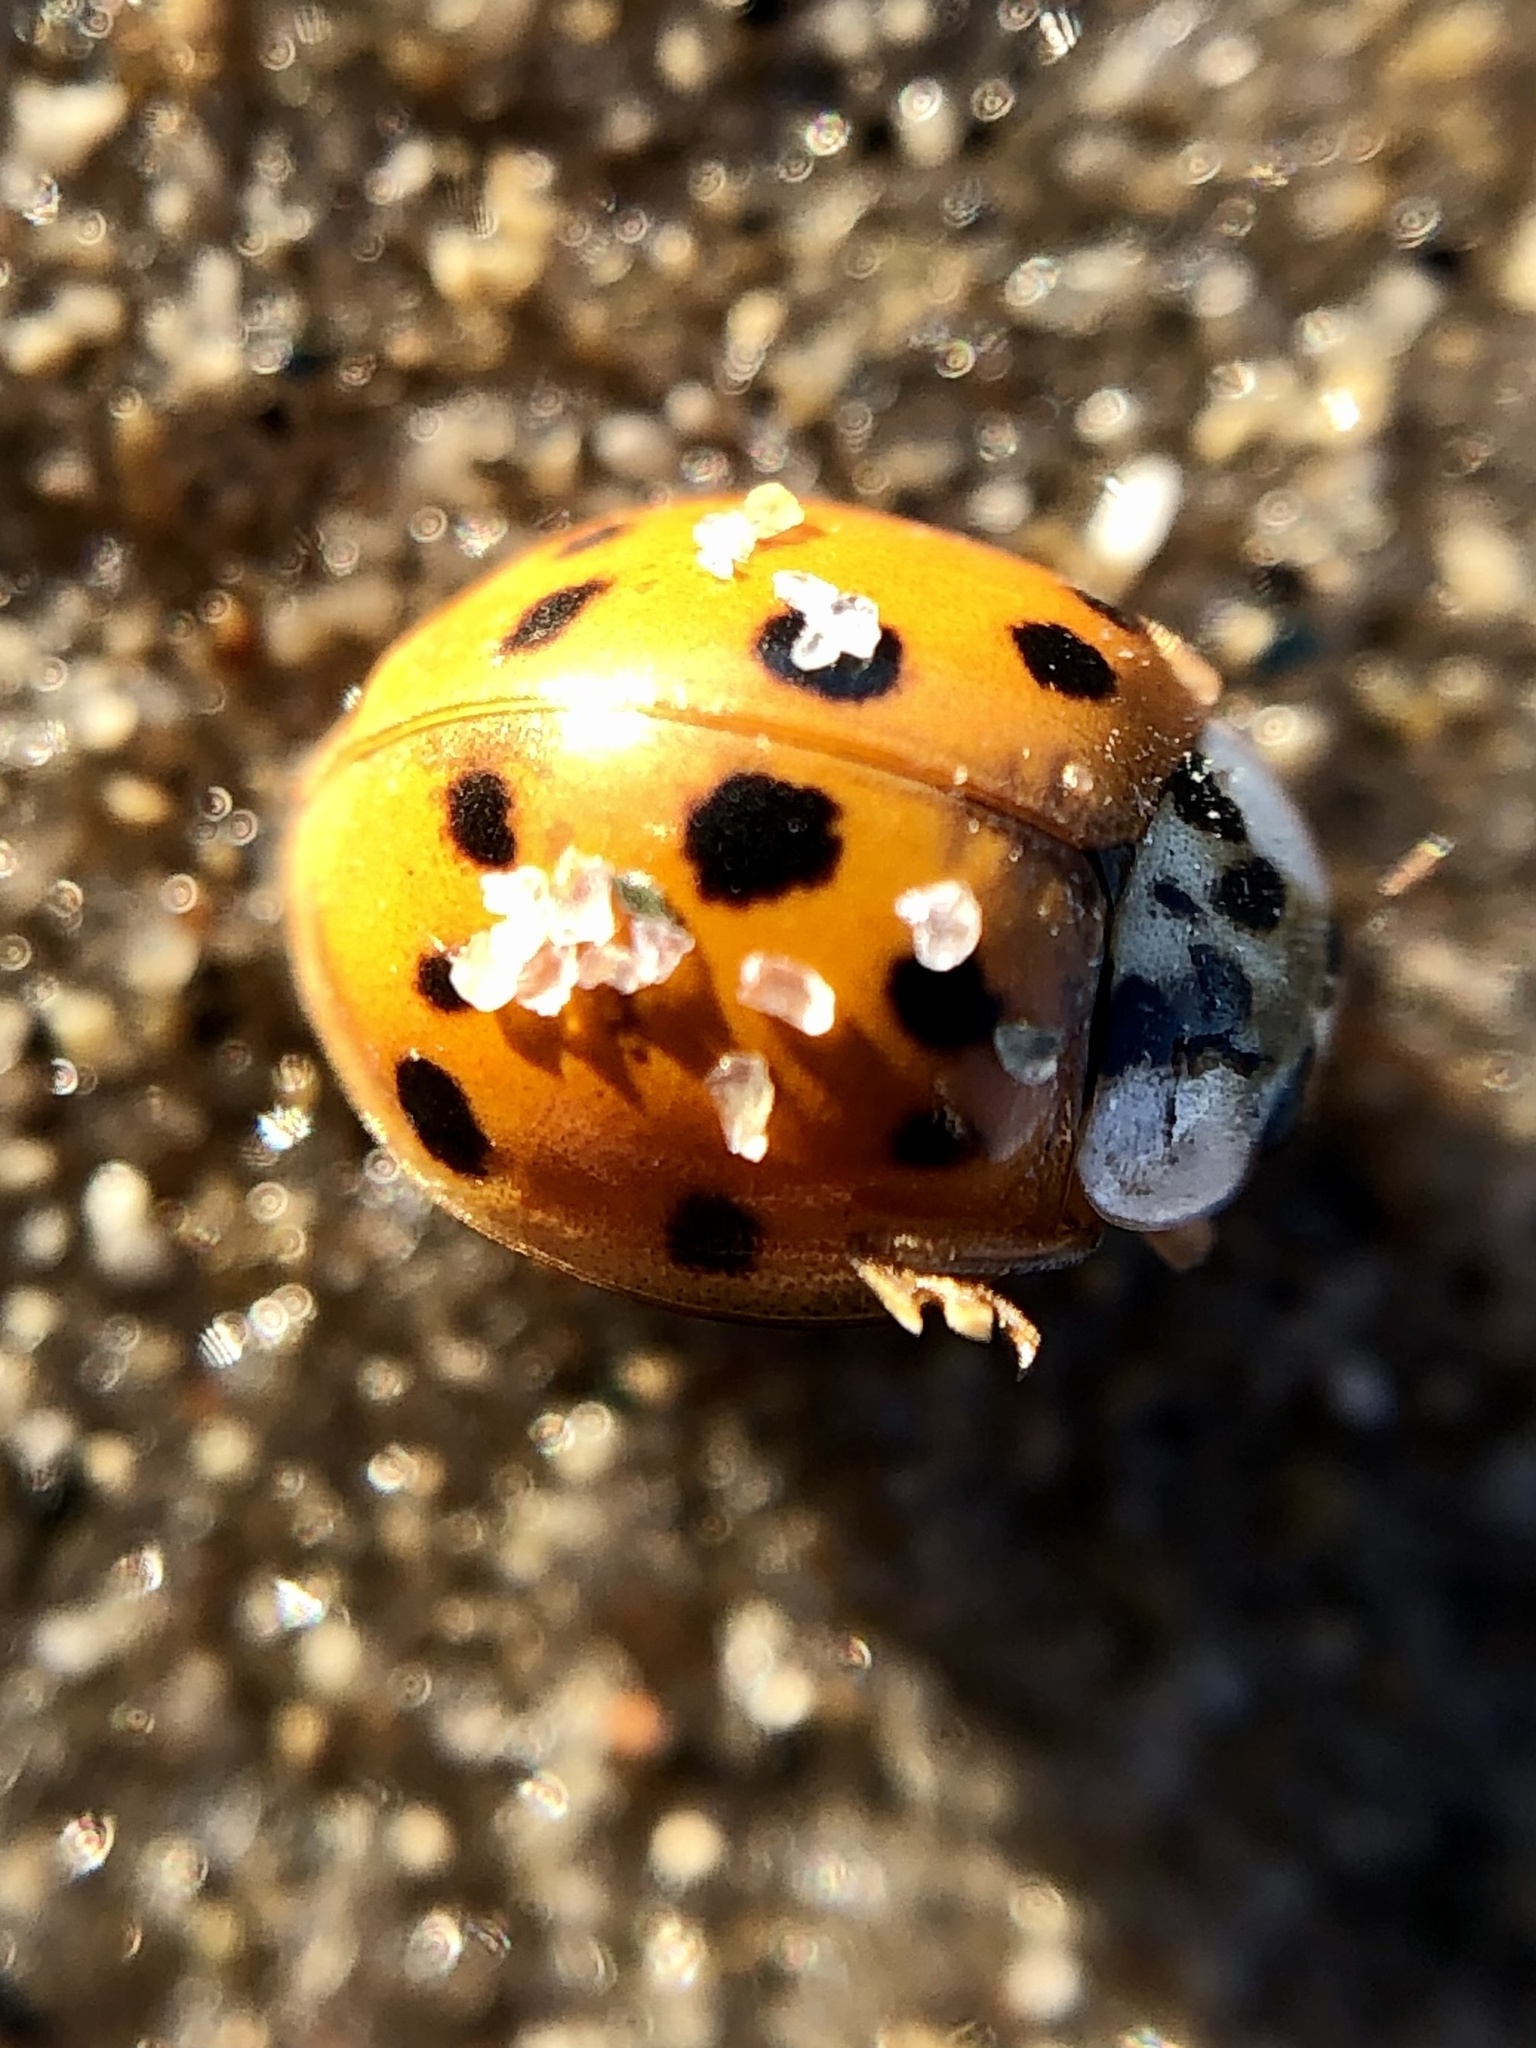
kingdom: Animalia
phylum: Arthropoda
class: Insecta
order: Coleoptera
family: Coccinellidae
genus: Harmonia
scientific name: Harmonia axyridis
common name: Harlequin ladybird
